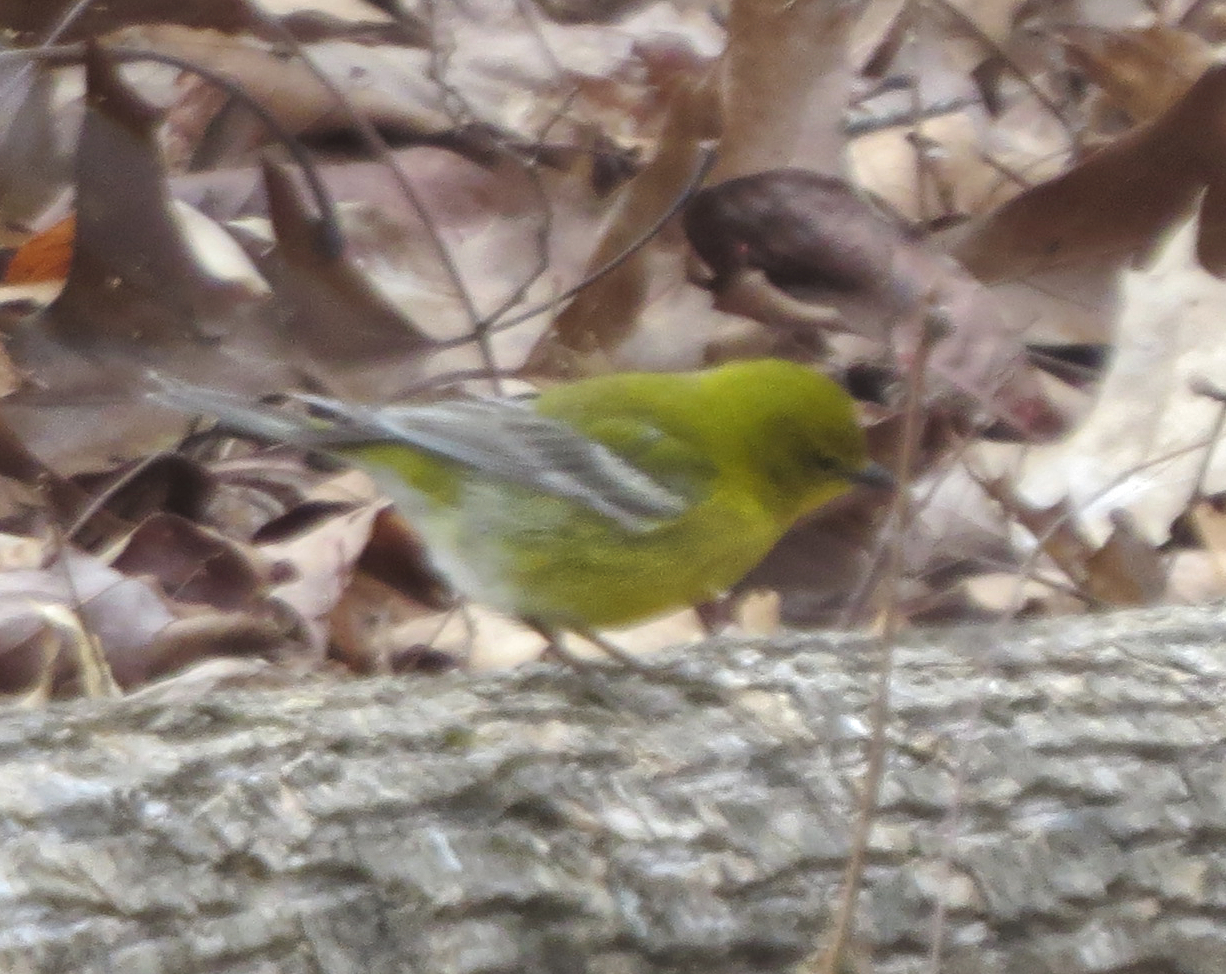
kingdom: Animalia
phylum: Chordata
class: Aves
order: Passeriformes
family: Parulidae
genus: Setophaga
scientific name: Setophaga pinus
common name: Pine warbler
